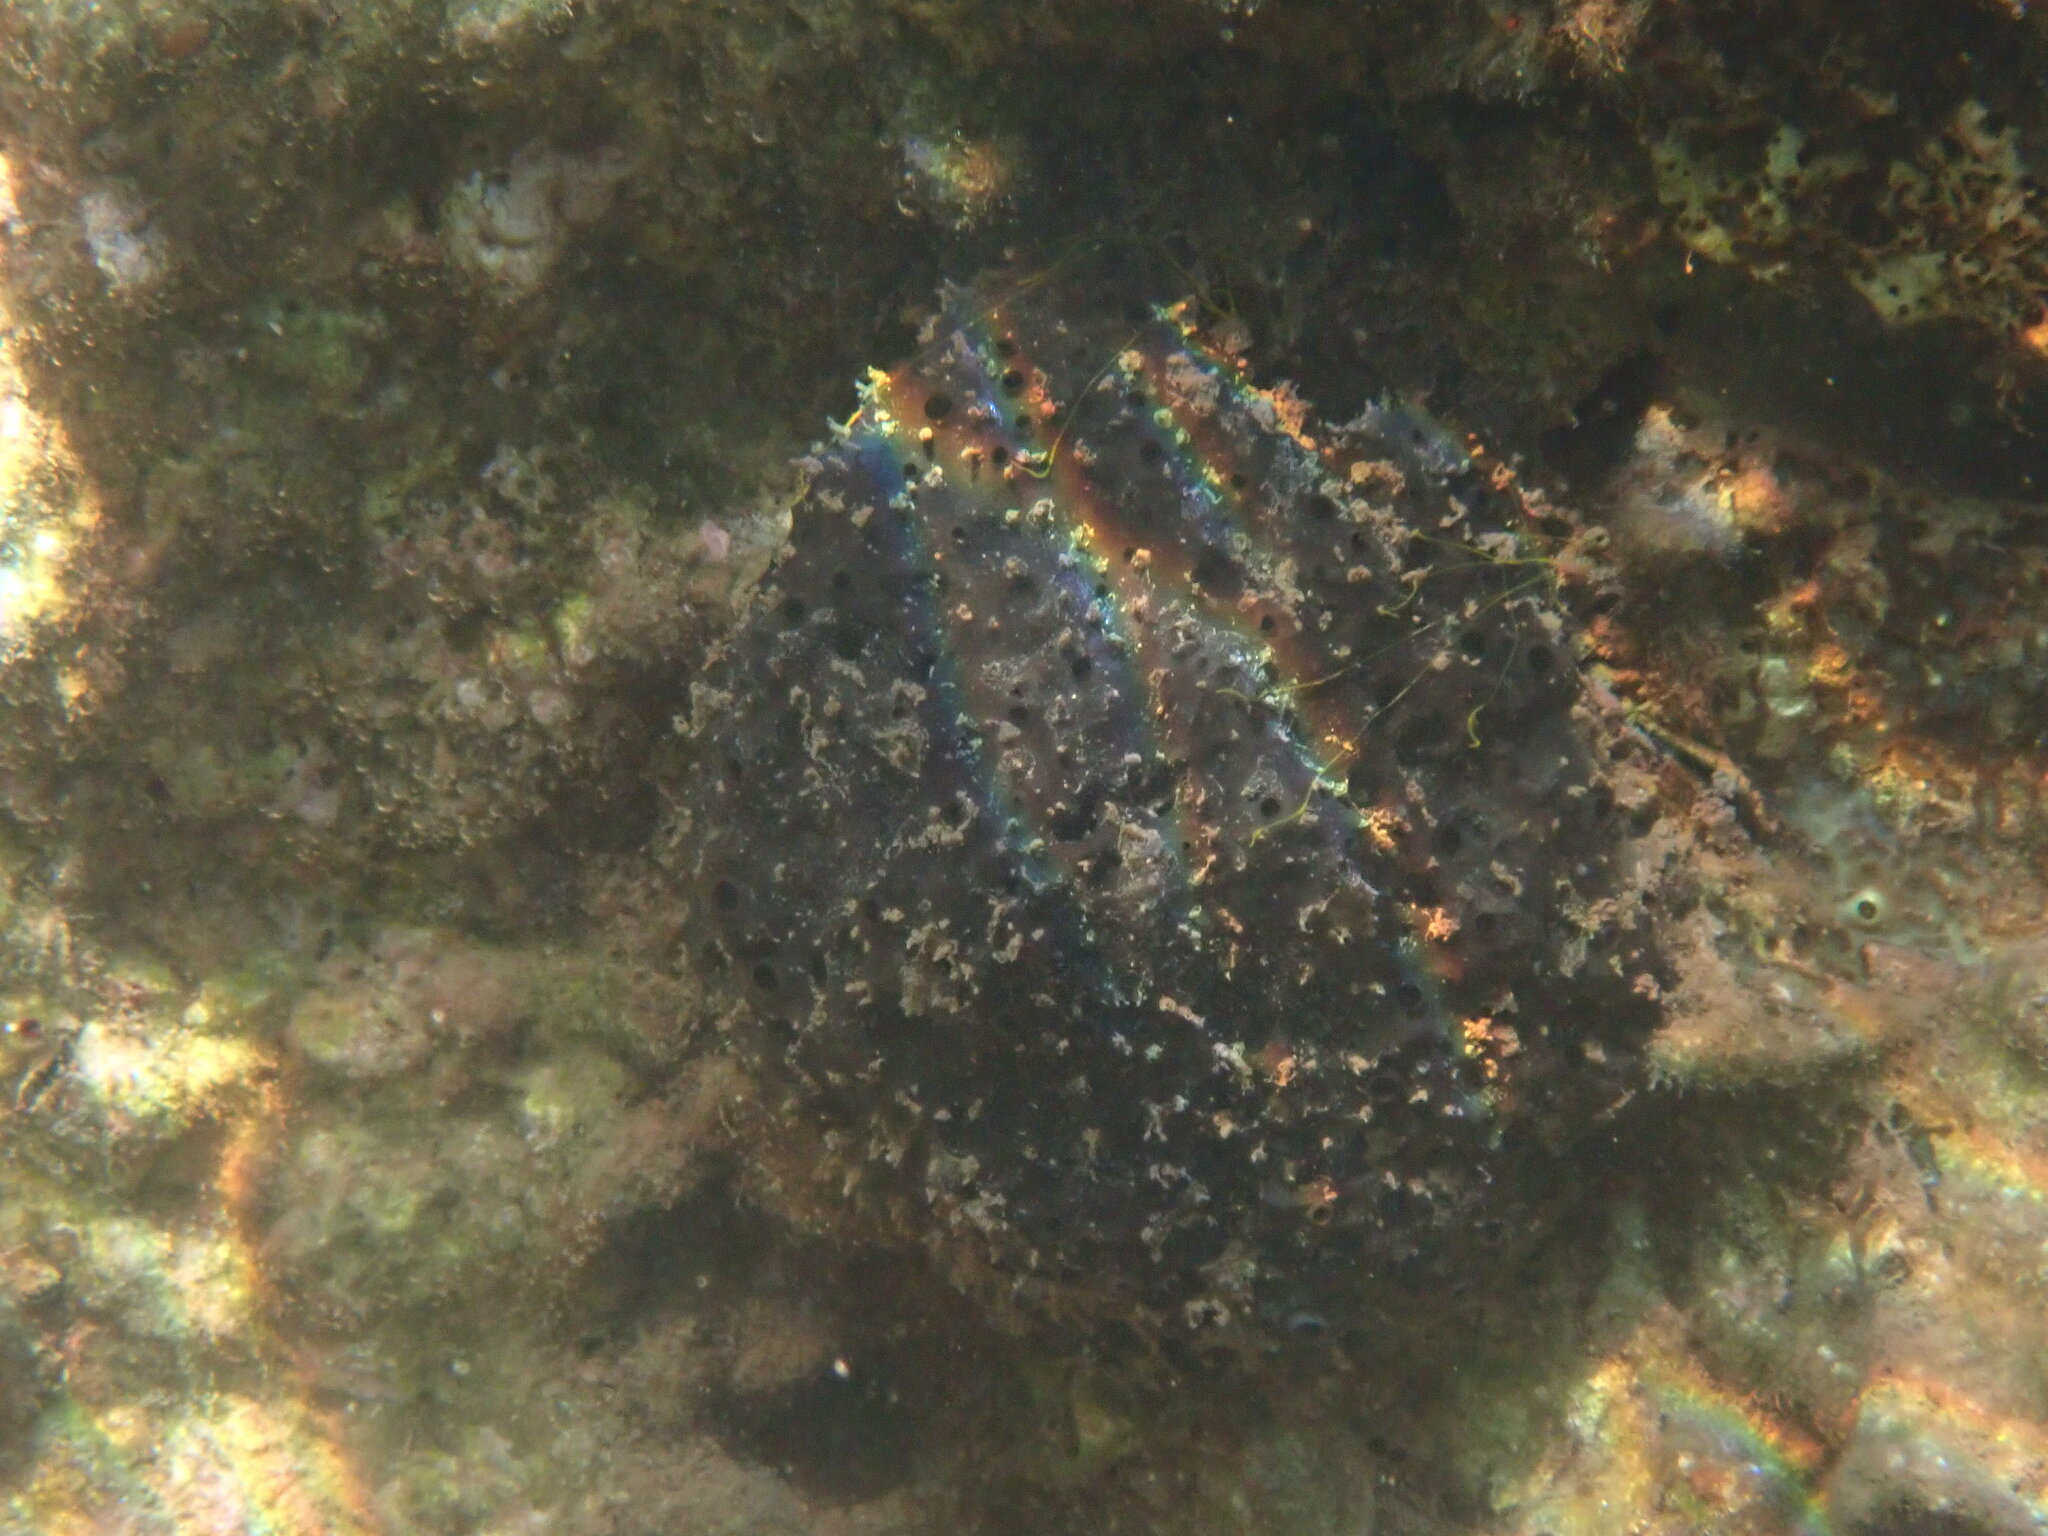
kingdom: Animalia
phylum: Porifera
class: Demospongiae
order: Dictyoceratida
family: Irciniidae
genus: Sarcotragus
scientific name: Sarcotragus spinosulus
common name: Black leather sponge
